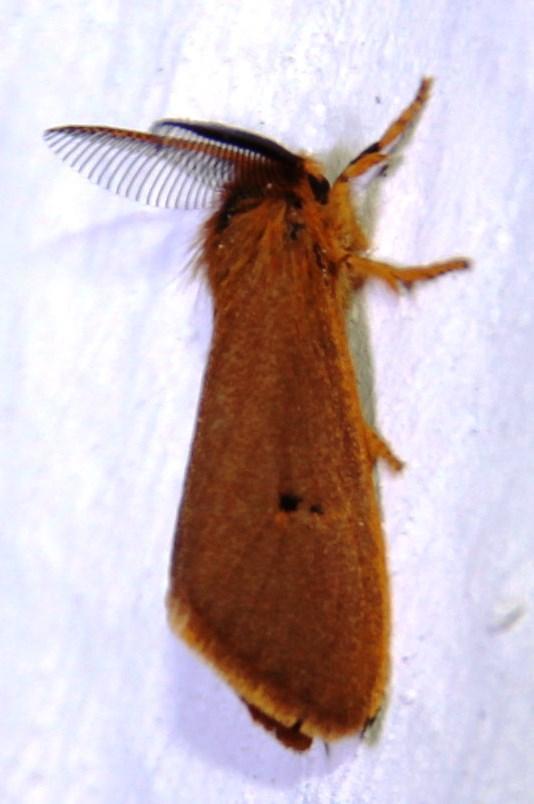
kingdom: Animalia
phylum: Arthropoda
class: Insecta
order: Lepidoptera
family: Erebidae
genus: Bracharoa
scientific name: Bracharoa dregei
